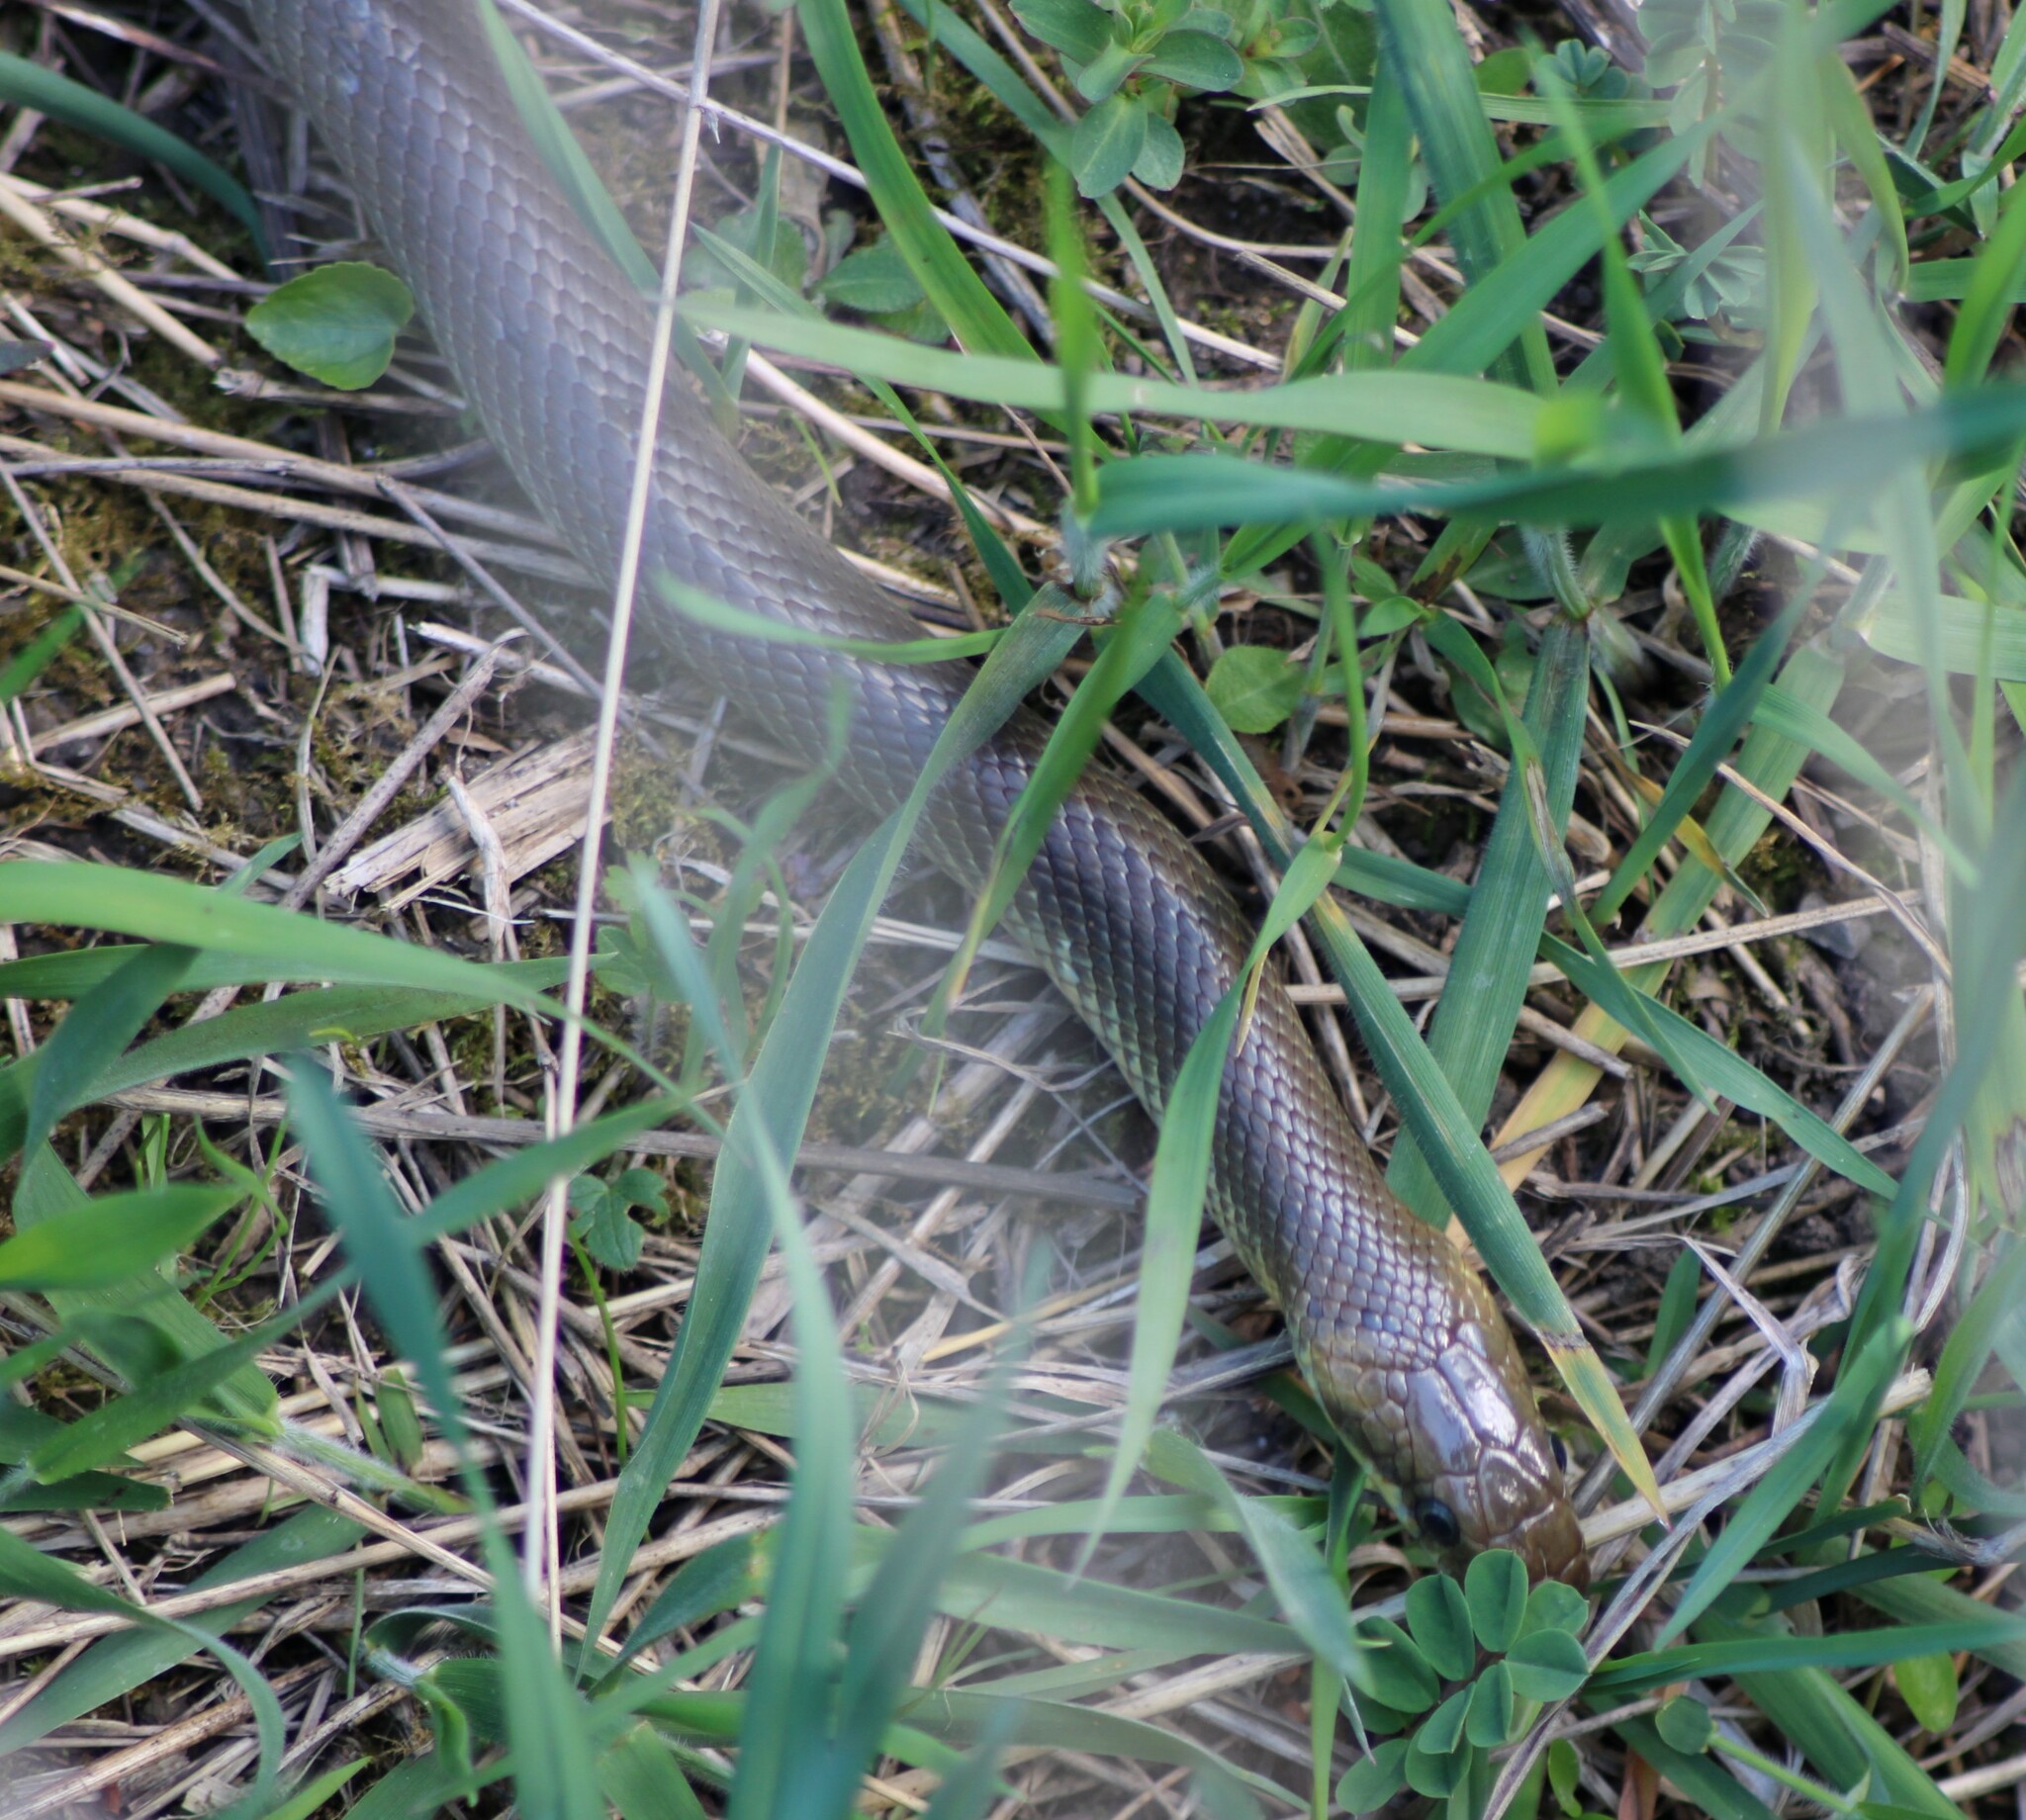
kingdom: Animalia
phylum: Chordata
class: Squamata
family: Colubridae
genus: Zamenis
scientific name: Zamenis longissimus
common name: Aesculapean snake
